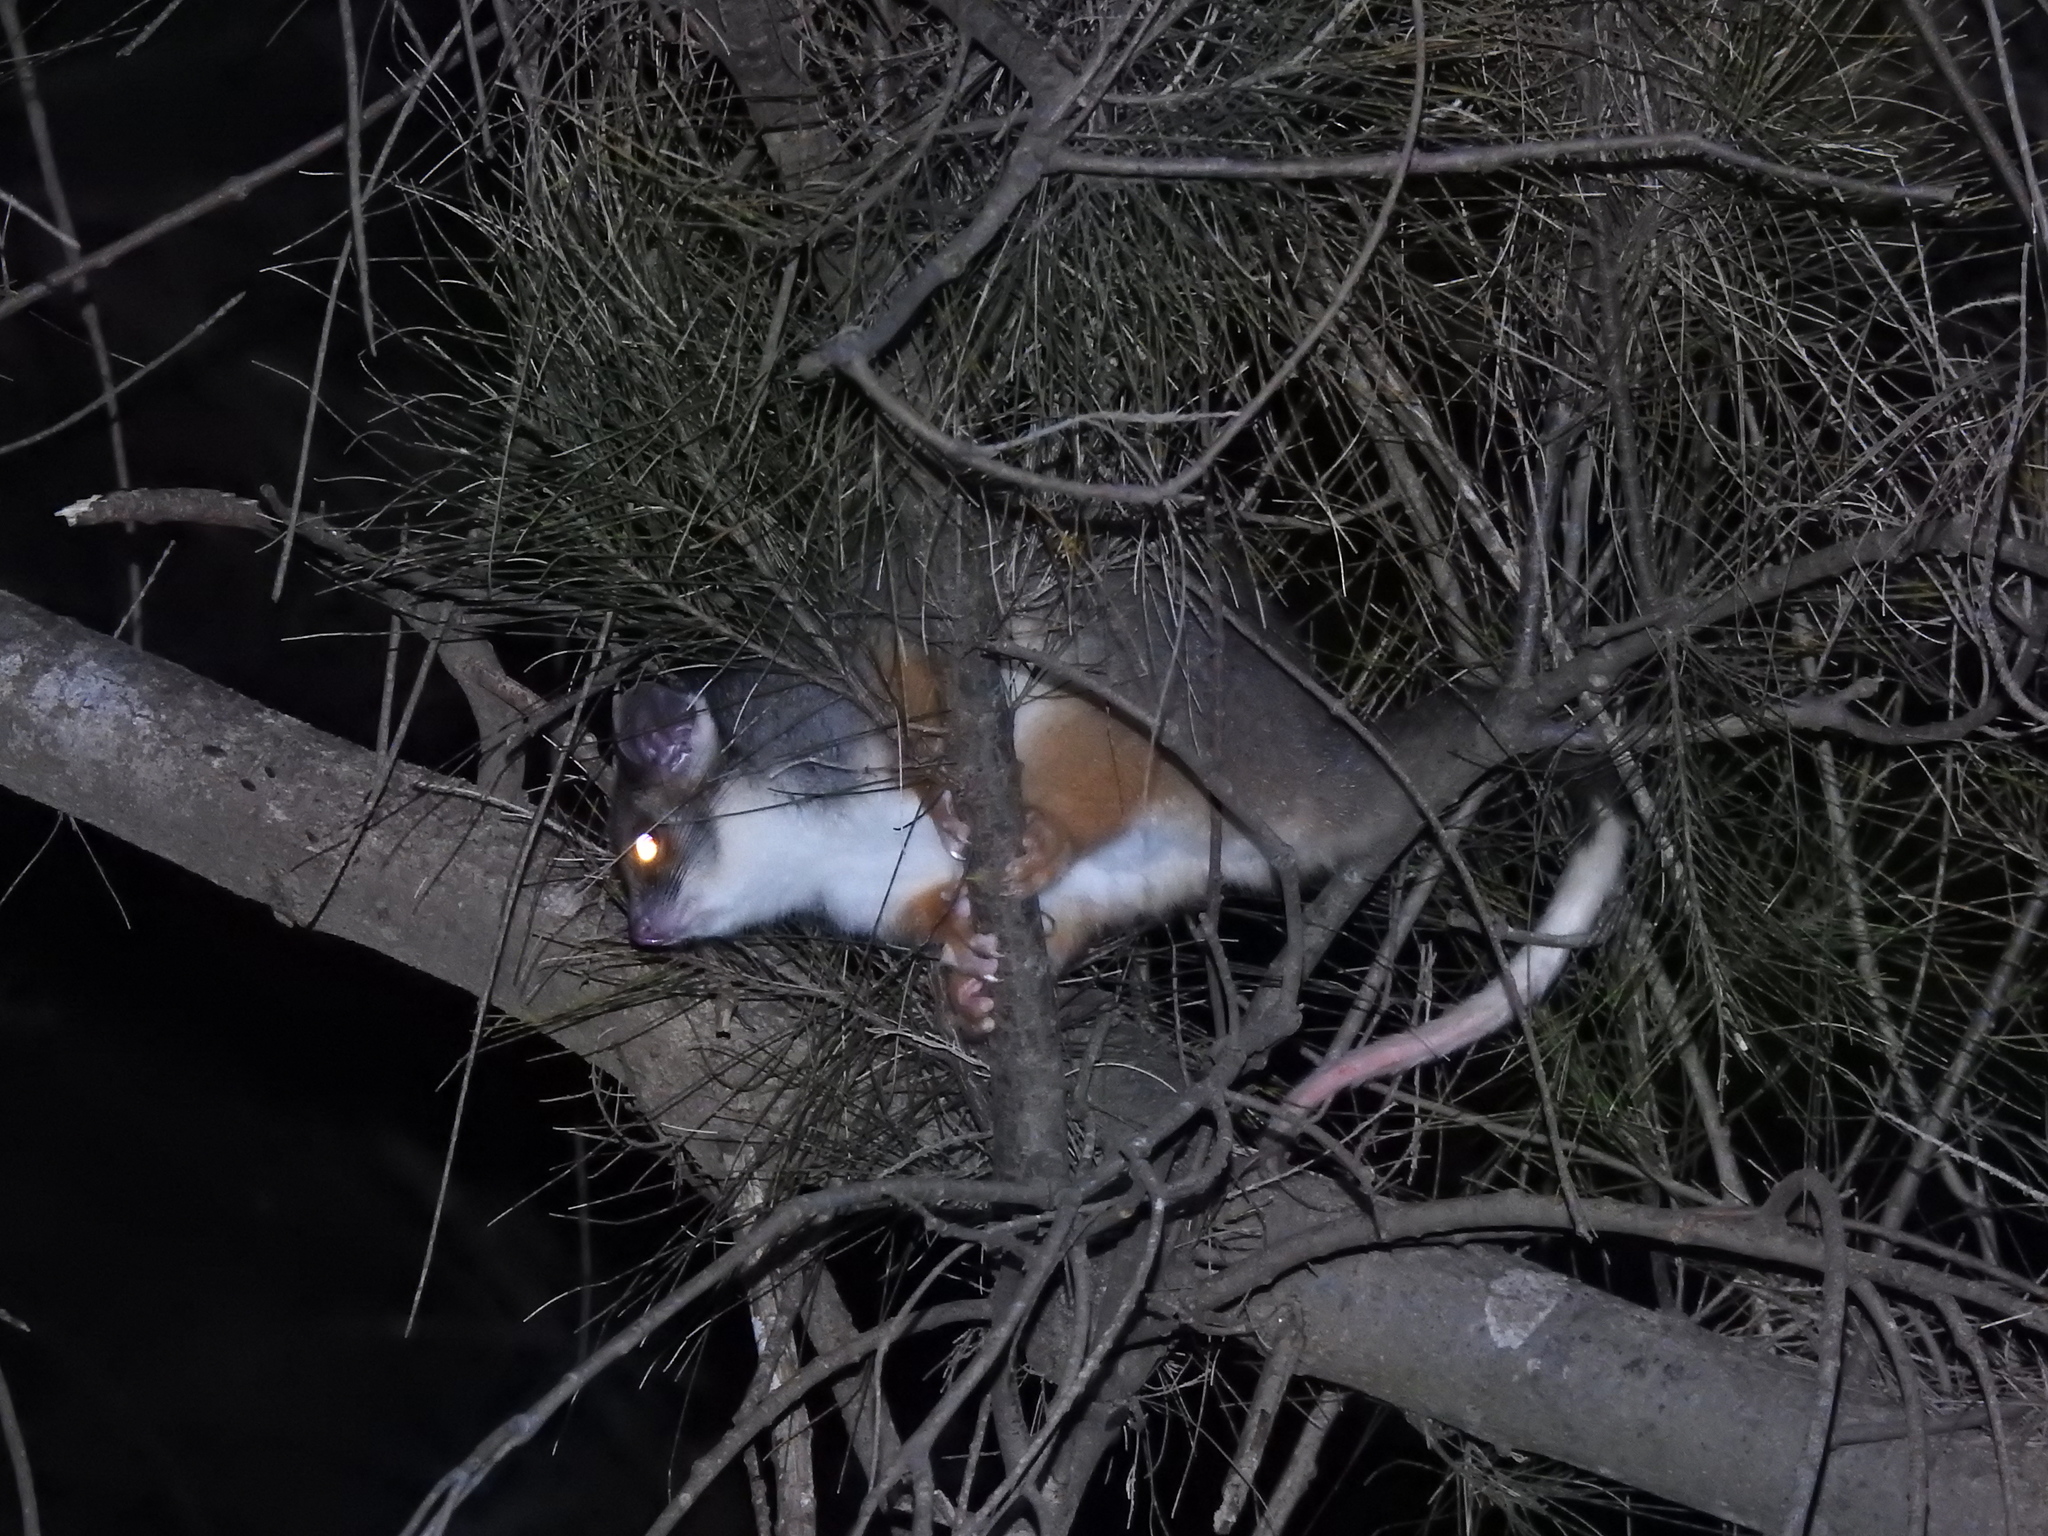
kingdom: Animalia
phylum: Chordata
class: Mammalia
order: Diprotodontia
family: Pseudocheiridae
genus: Pseudocheirus
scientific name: Pseudocheirus peregrinus
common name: Common ringtail possum
